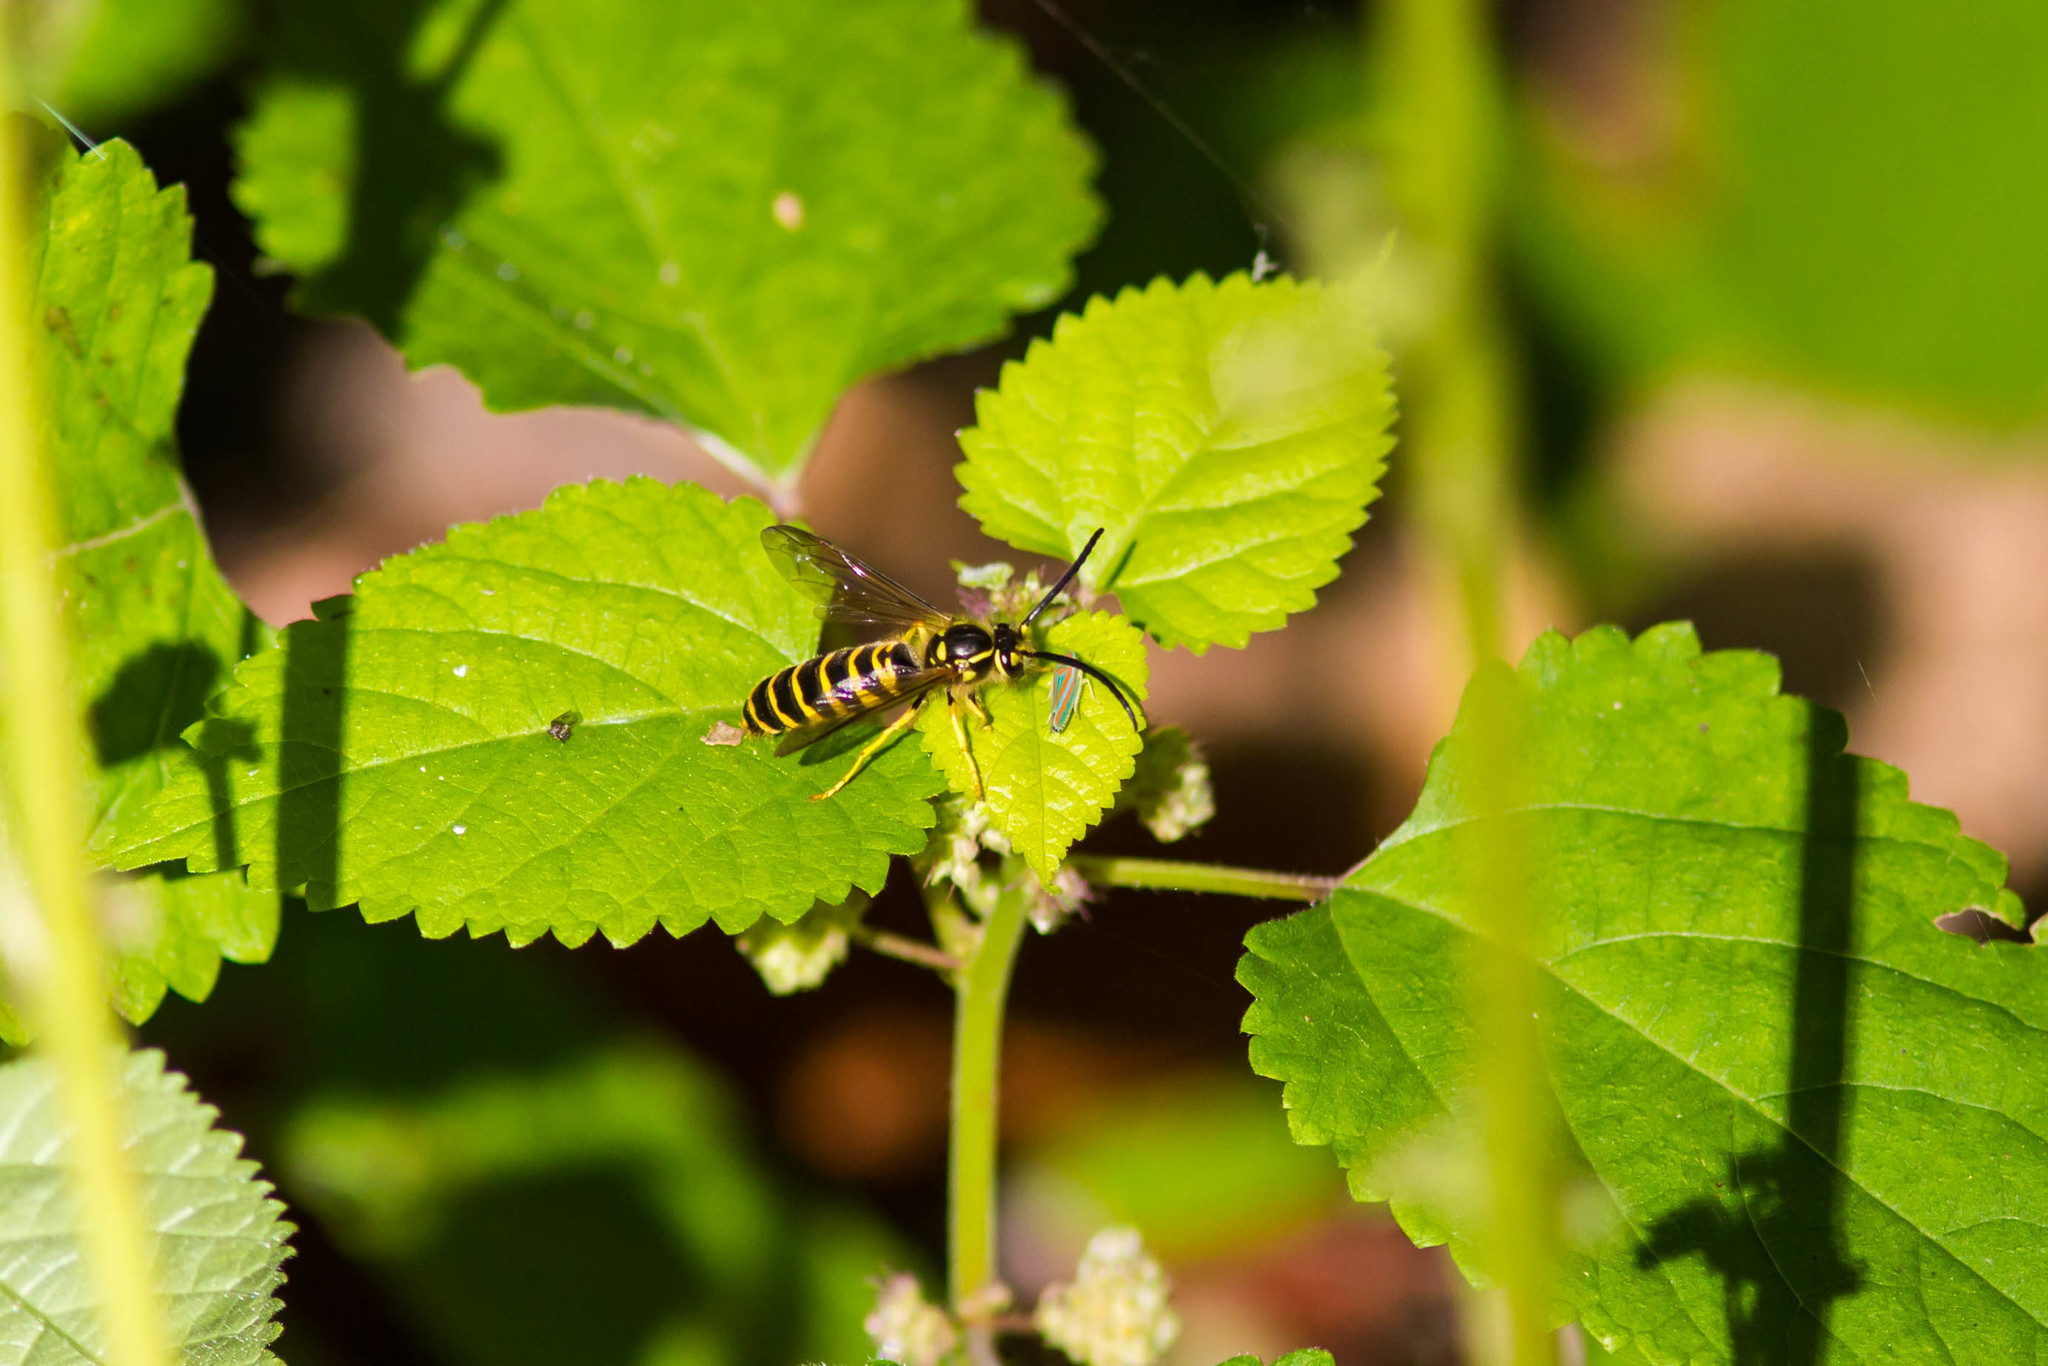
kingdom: Animalia
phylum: Arthropoda
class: Insecta
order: Hymenoptera
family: Vespidae
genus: Vespula
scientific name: Vespula maculifrons
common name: Eastern yellowjacket
